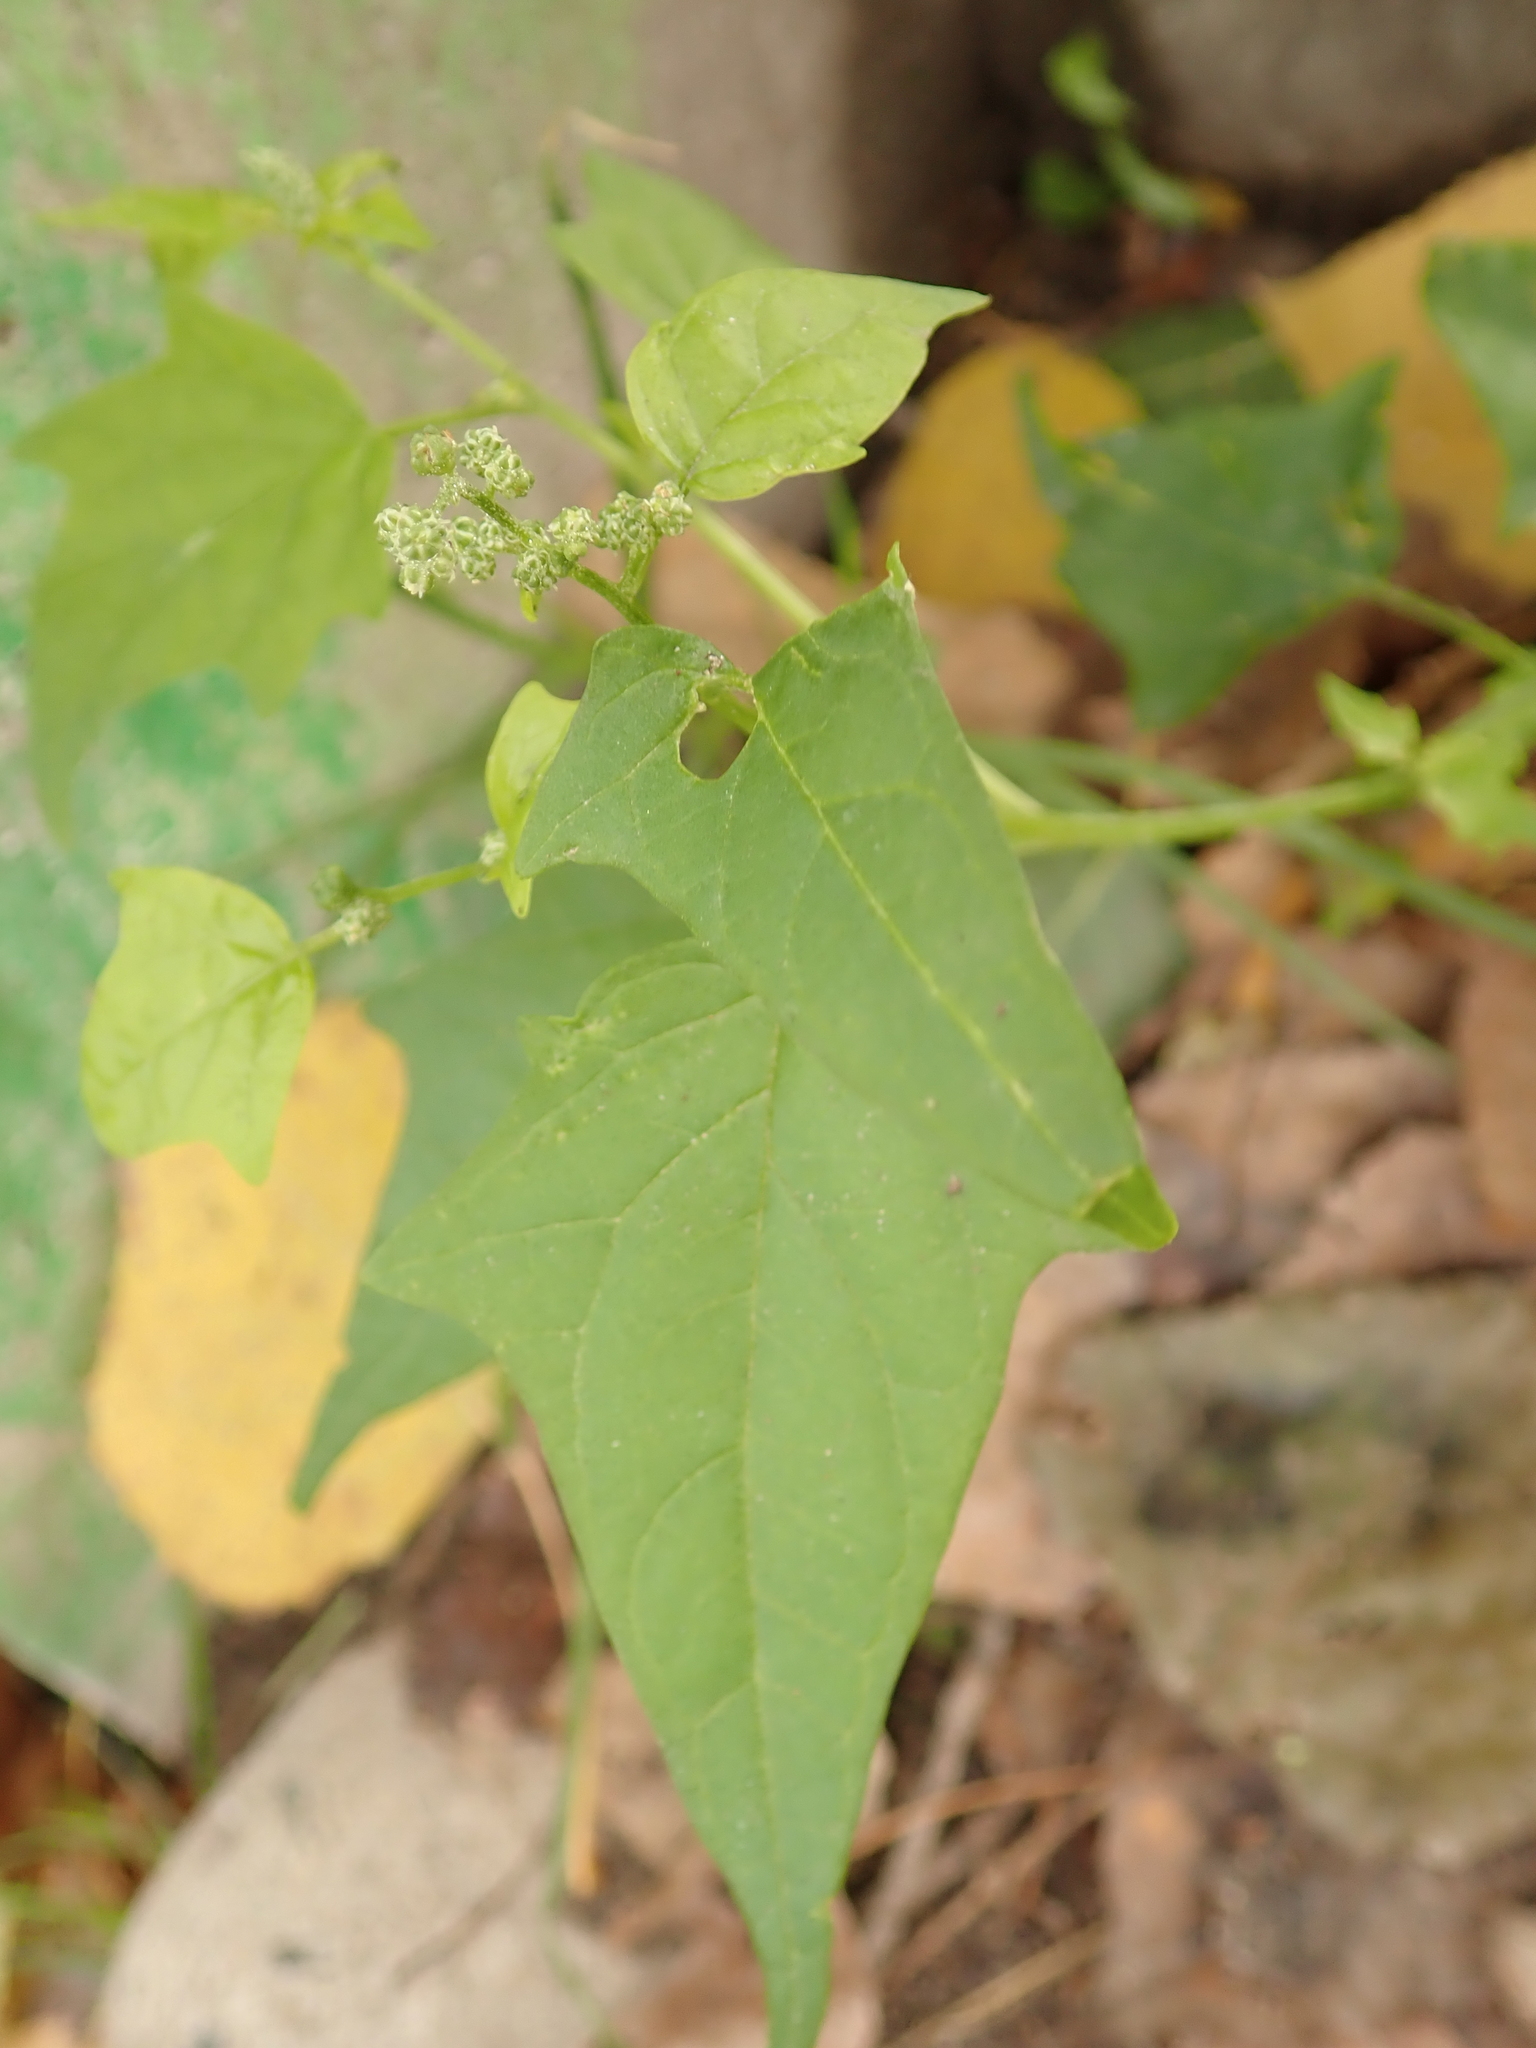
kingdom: Plantae
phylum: Tracheophyta
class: Magnoliopsida
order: Caryophyllales
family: Amaranthaceae
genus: Chenopodiastrum
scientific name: Chenopodiastrum hybridum
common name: Mapleleaf goosefoot
